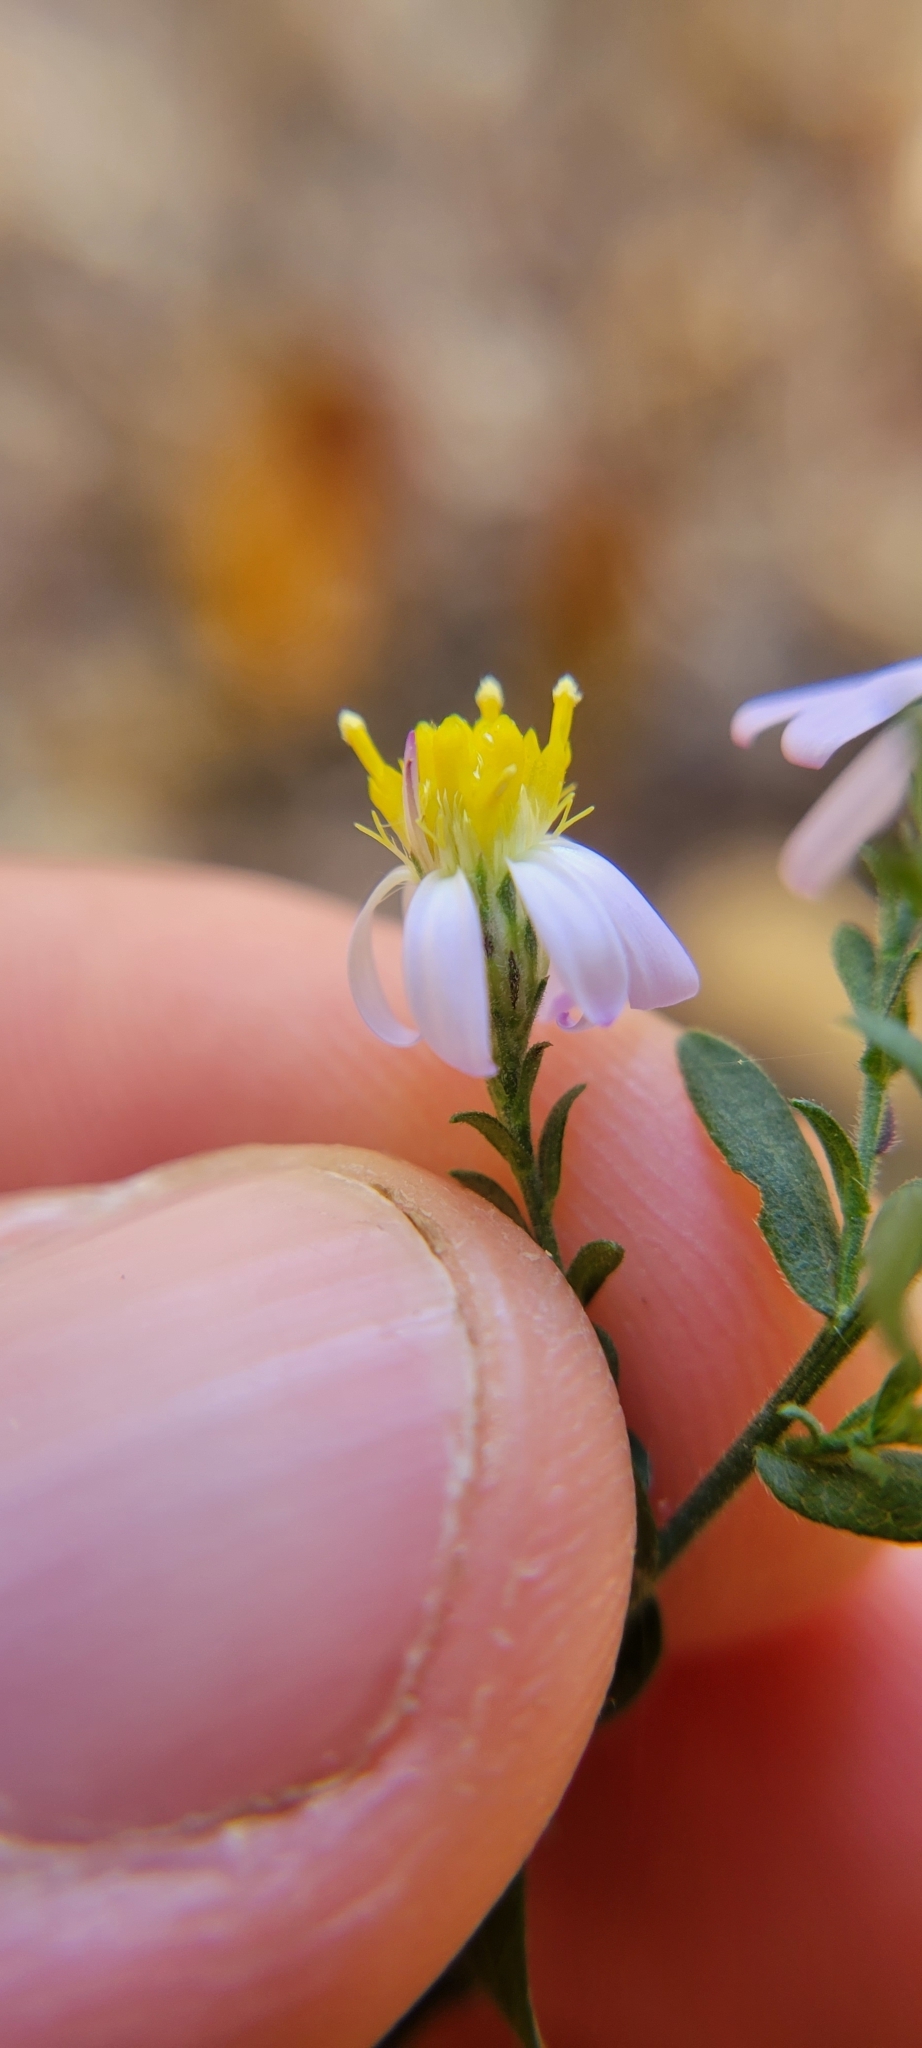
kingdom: Plantae
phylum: Tracheophyta
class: Magnoliopsida
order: Asterales
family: Asteraceae
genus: Symphyotrichum
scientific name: Symphyotrichum undulatum
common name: Clasping heart-leaf aster
